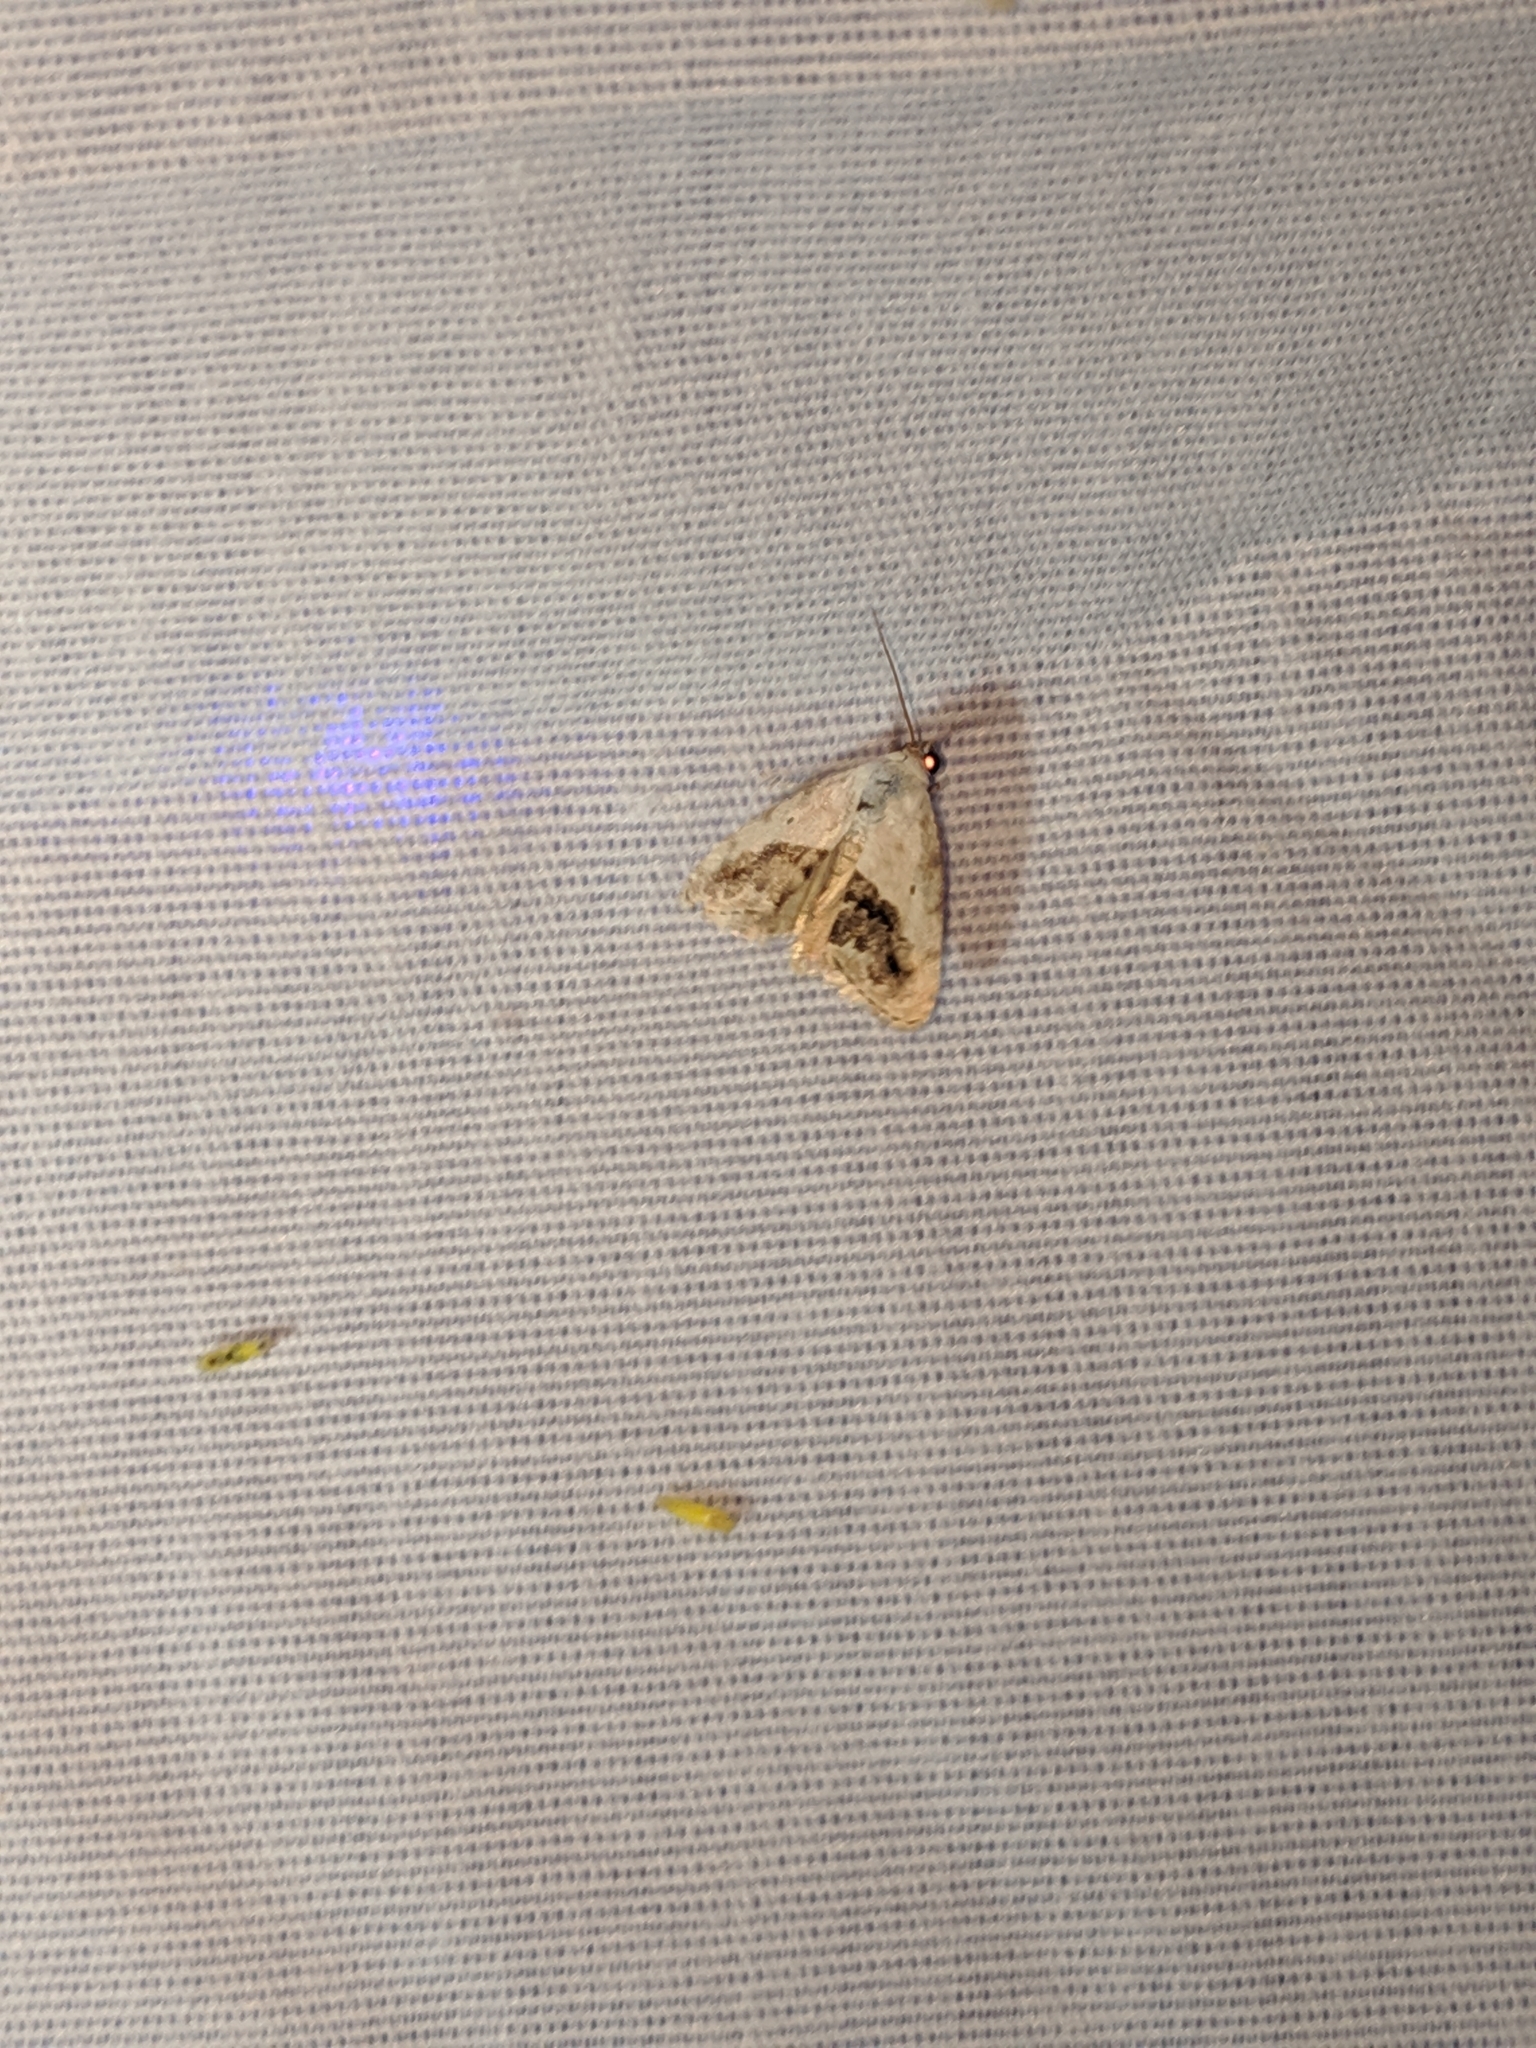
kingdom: Animalia
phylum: Arthropoda
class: Insecta
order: Lepidoptera
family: Noctuidae
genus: Acontia
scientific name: Acontia erastrioides
